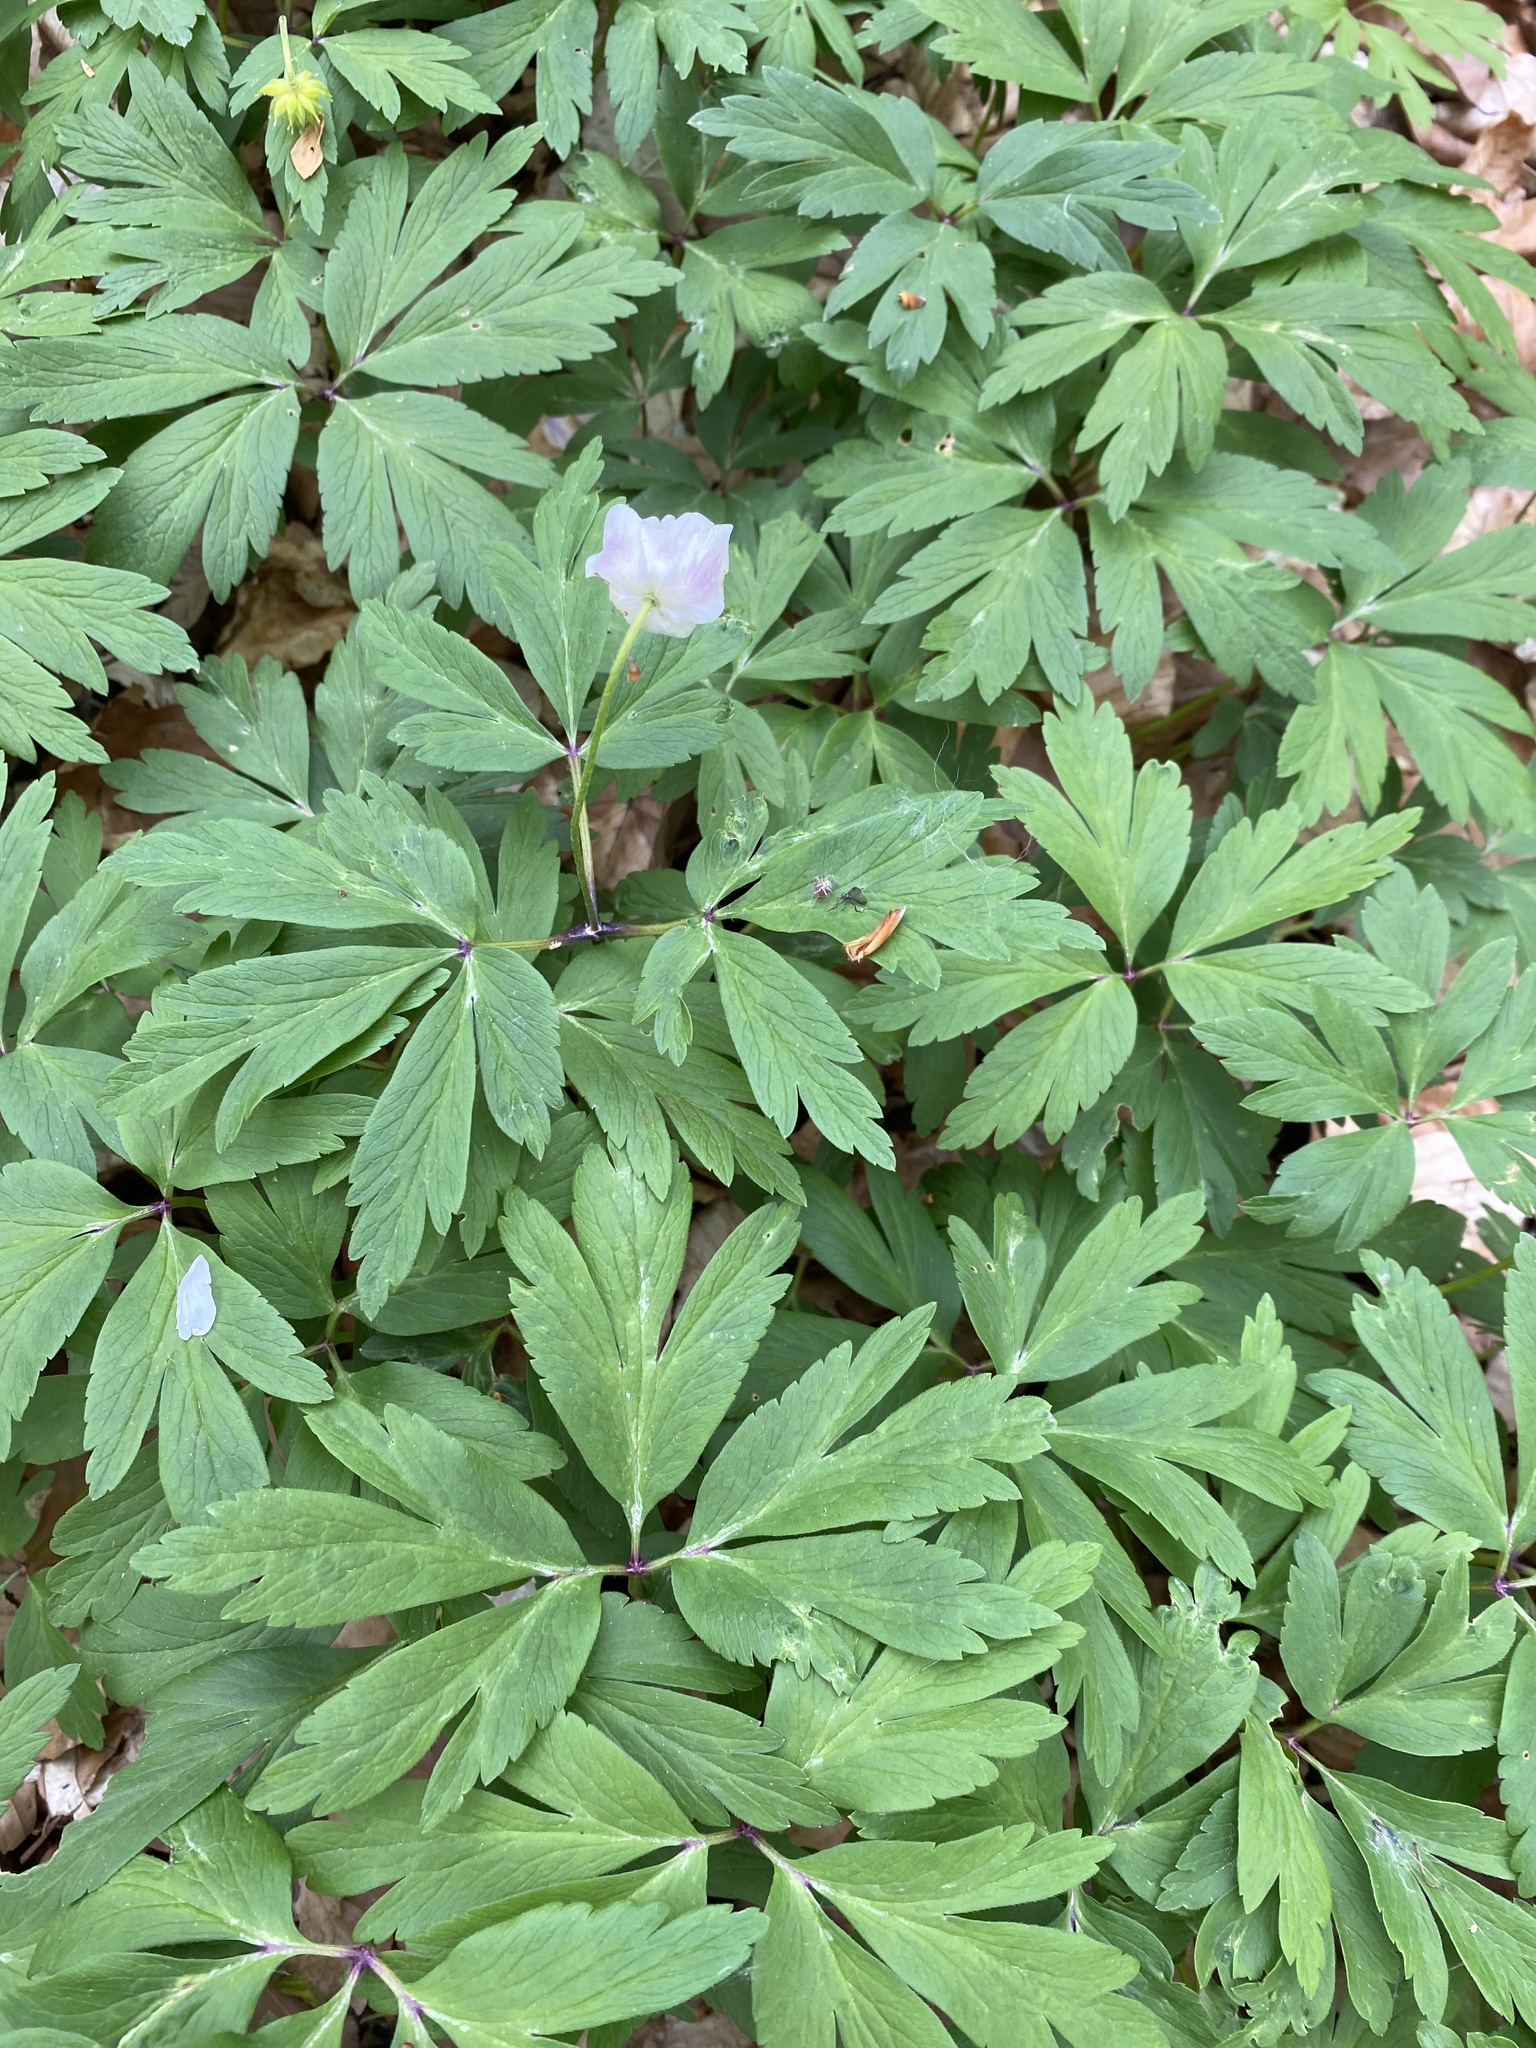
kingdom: Plantae
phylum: Tracheophyta
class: Magnoliopsida
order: Ranunculales
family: Ranunculaceae
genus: Anemone
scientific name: Anemone nemorosa
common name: Wood anemone
